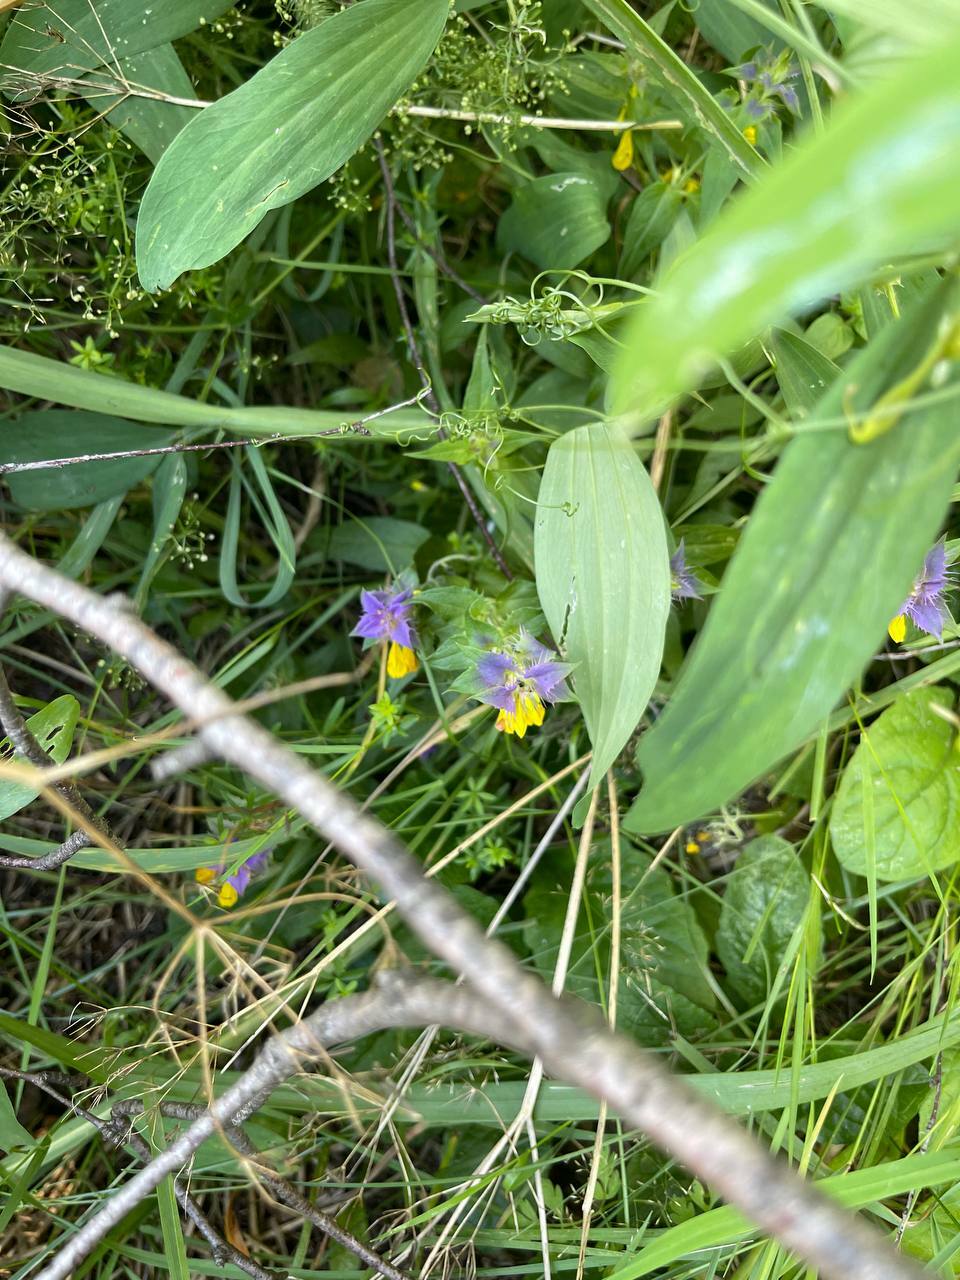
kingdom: Plantae
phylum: Tracheophyta
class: Magnoliopsida
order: Lamiales
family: Orobanchaceae
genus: Melampyrum
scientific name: Melampyrum nemorosum
